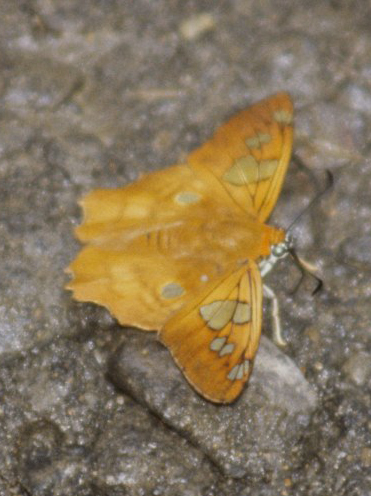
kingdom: Animalia
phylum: Arthropoda
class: Insecta
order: Lepidoptera
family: Hesperiidae
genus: Myscelus
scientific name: Myscelus phoronis
